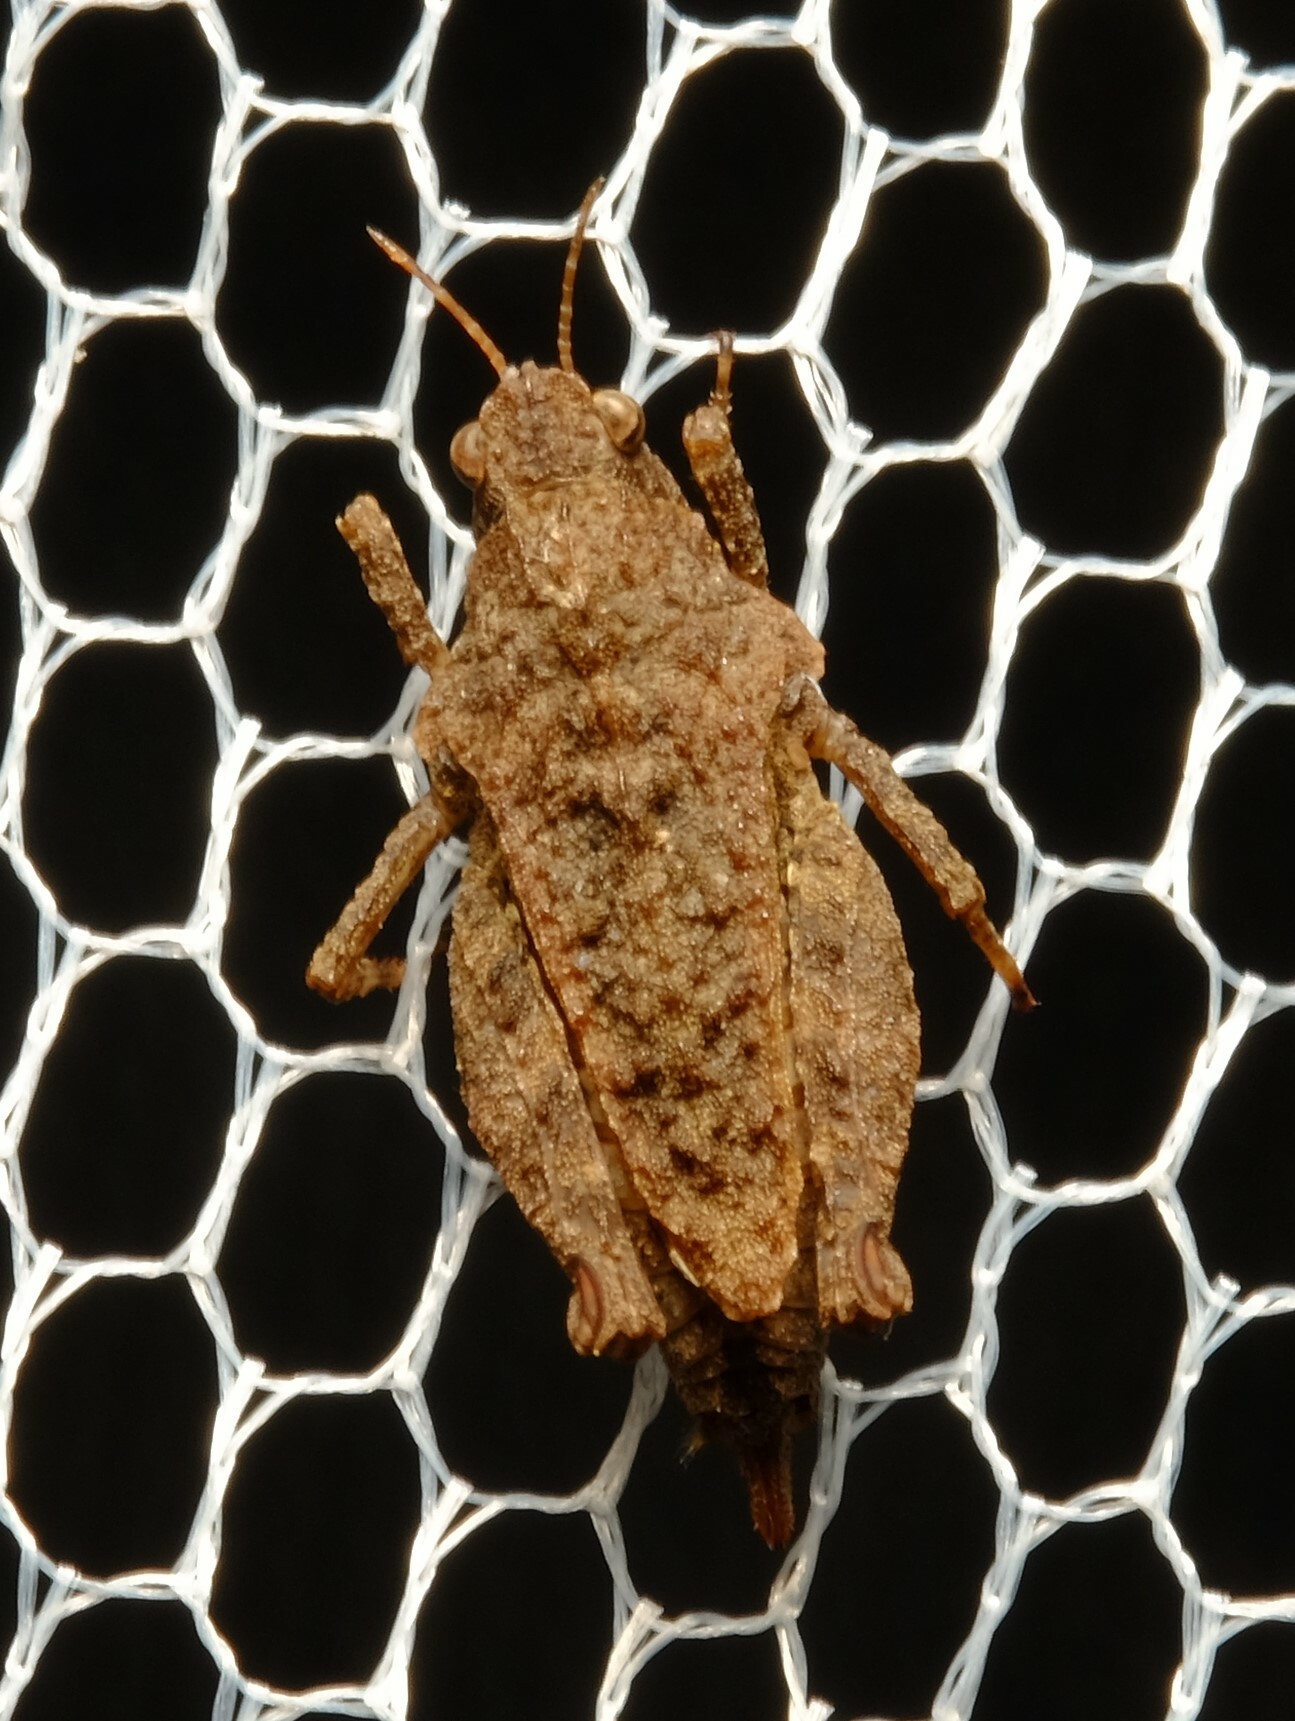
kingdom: Animalia
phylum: Arthropoda
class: Insecta
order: Orthoptera
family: Tetrigidae
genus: Tetrix
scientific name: Tetrix irrupta
